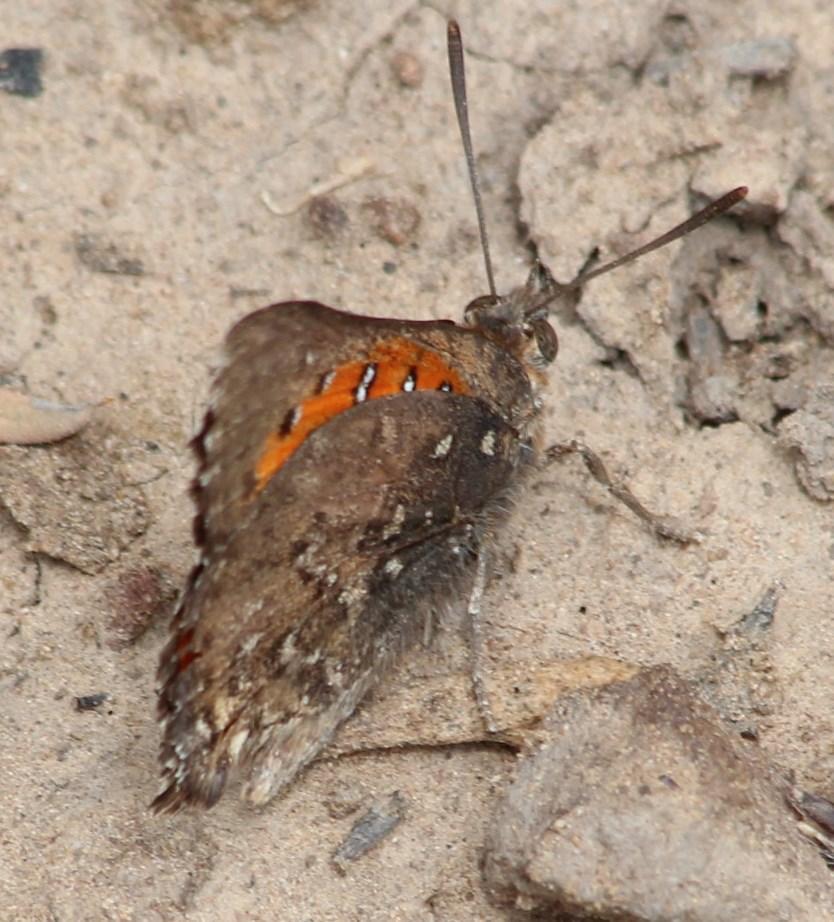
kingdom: Animalia
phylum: Arthropoda
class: Insecta
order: Lepidoptera
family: Lycaenidae
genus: Aloeides
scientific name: Aloeides vansoni
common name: Van son's copper
